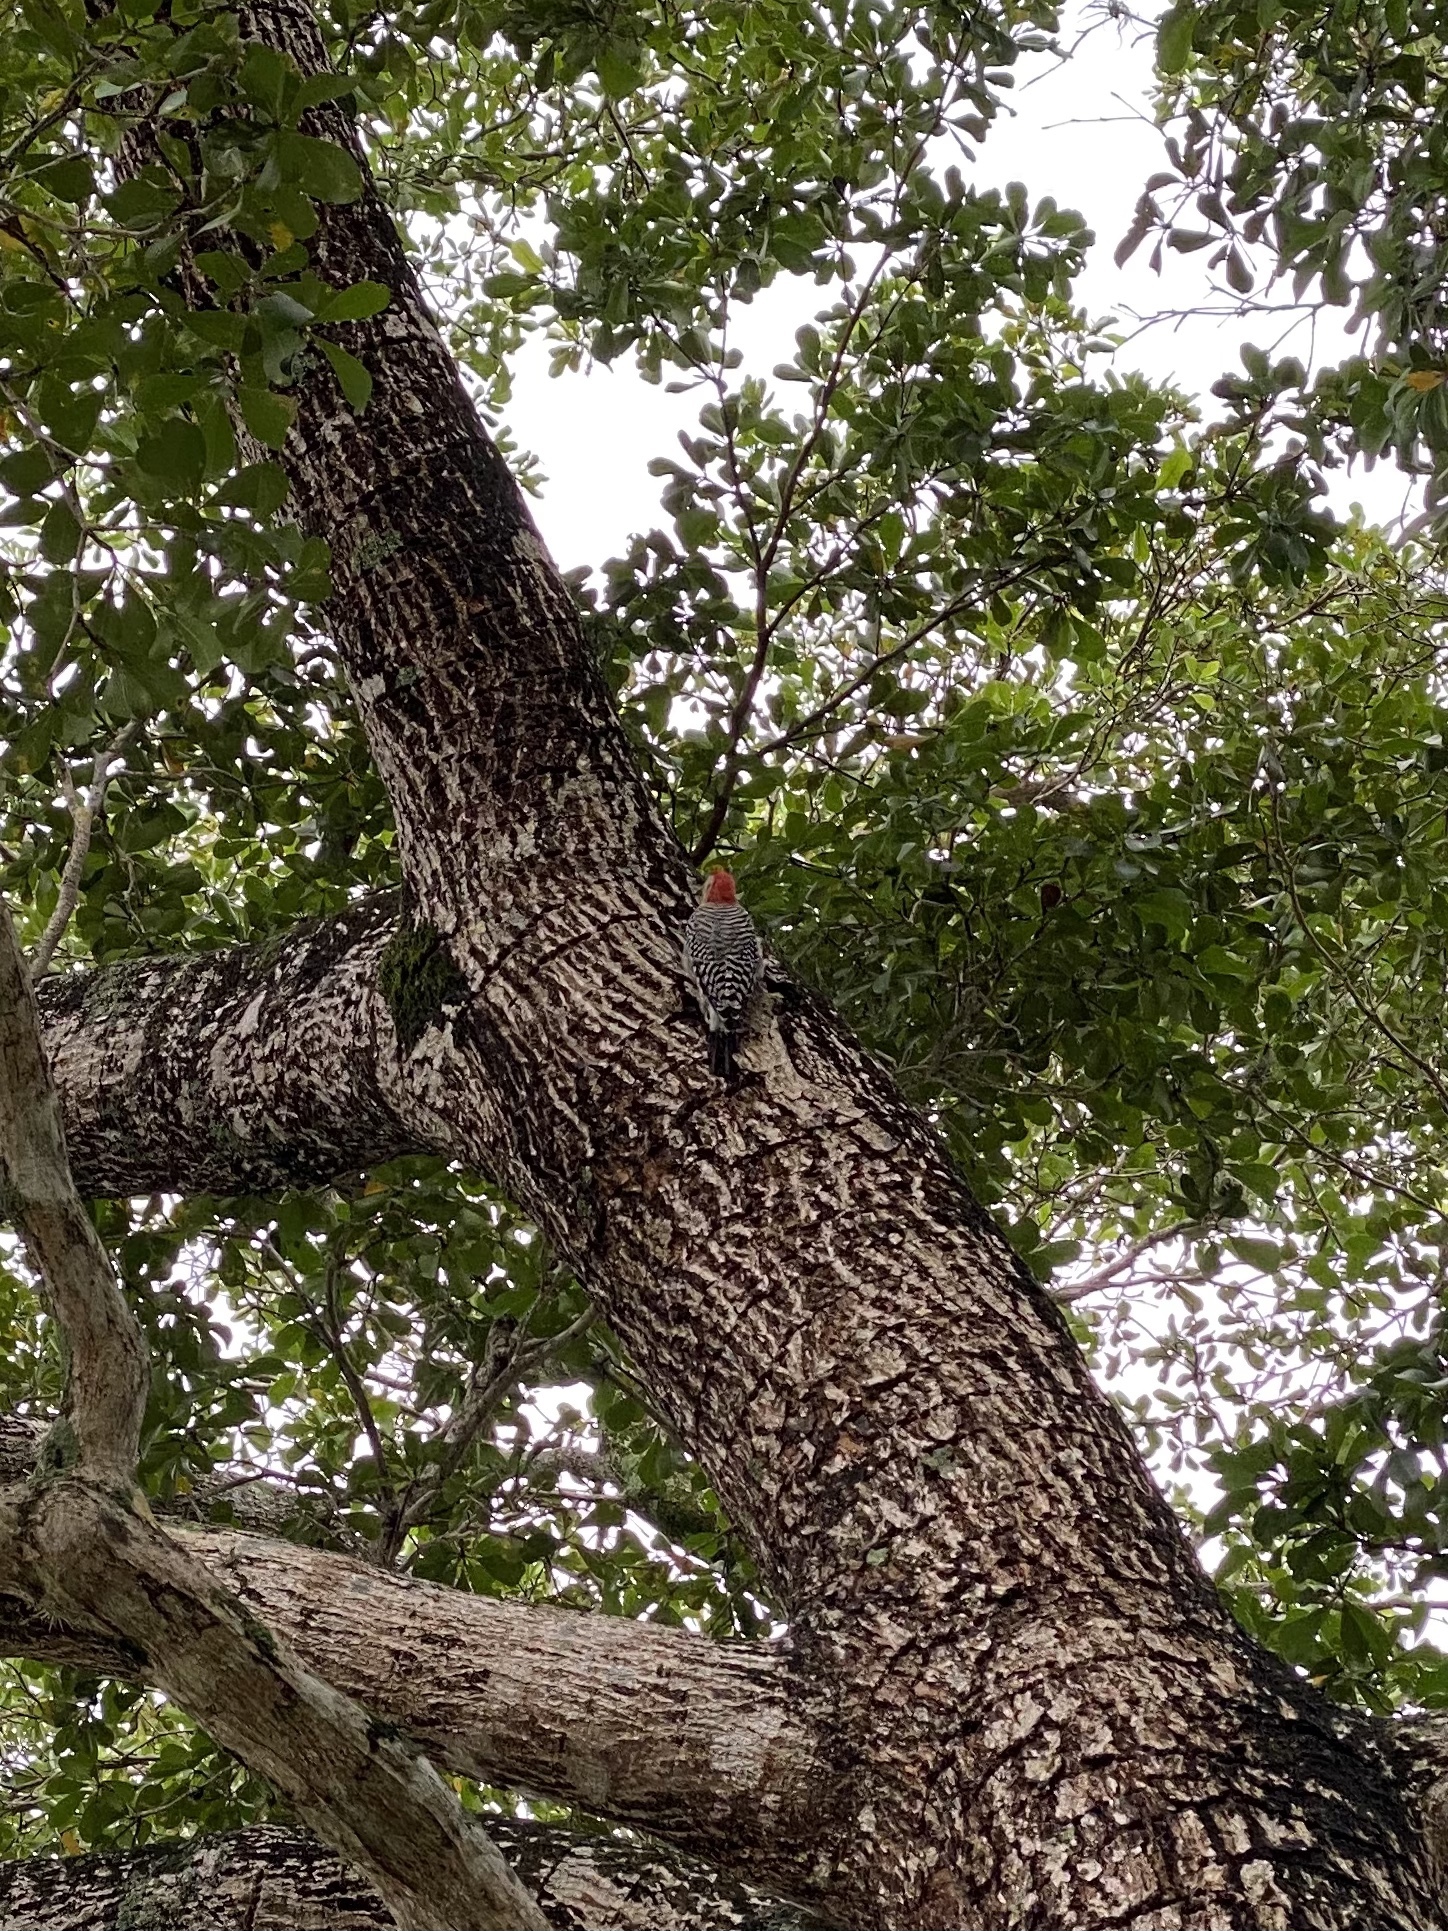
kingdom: Animalia
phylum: Chordata
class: Aves
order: Piciformes
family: Picidae
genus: Melanerpes
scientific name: Melanerpes carolinus
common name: Red-bellied woodpecker
